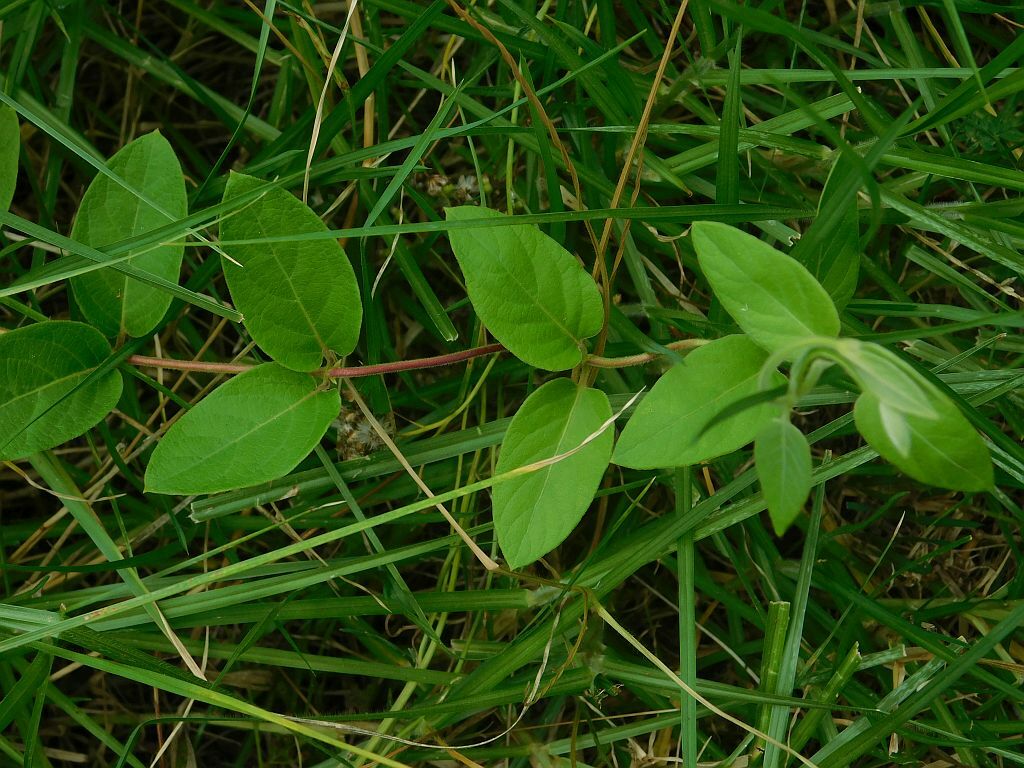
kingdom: Plantae
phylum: Tracheophyta
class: Magnoliopsida
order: Dipsacales
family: Caprifoliaceae
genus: Lonicera
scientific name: Lonicera japonica
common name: Japanese honeysuckle
